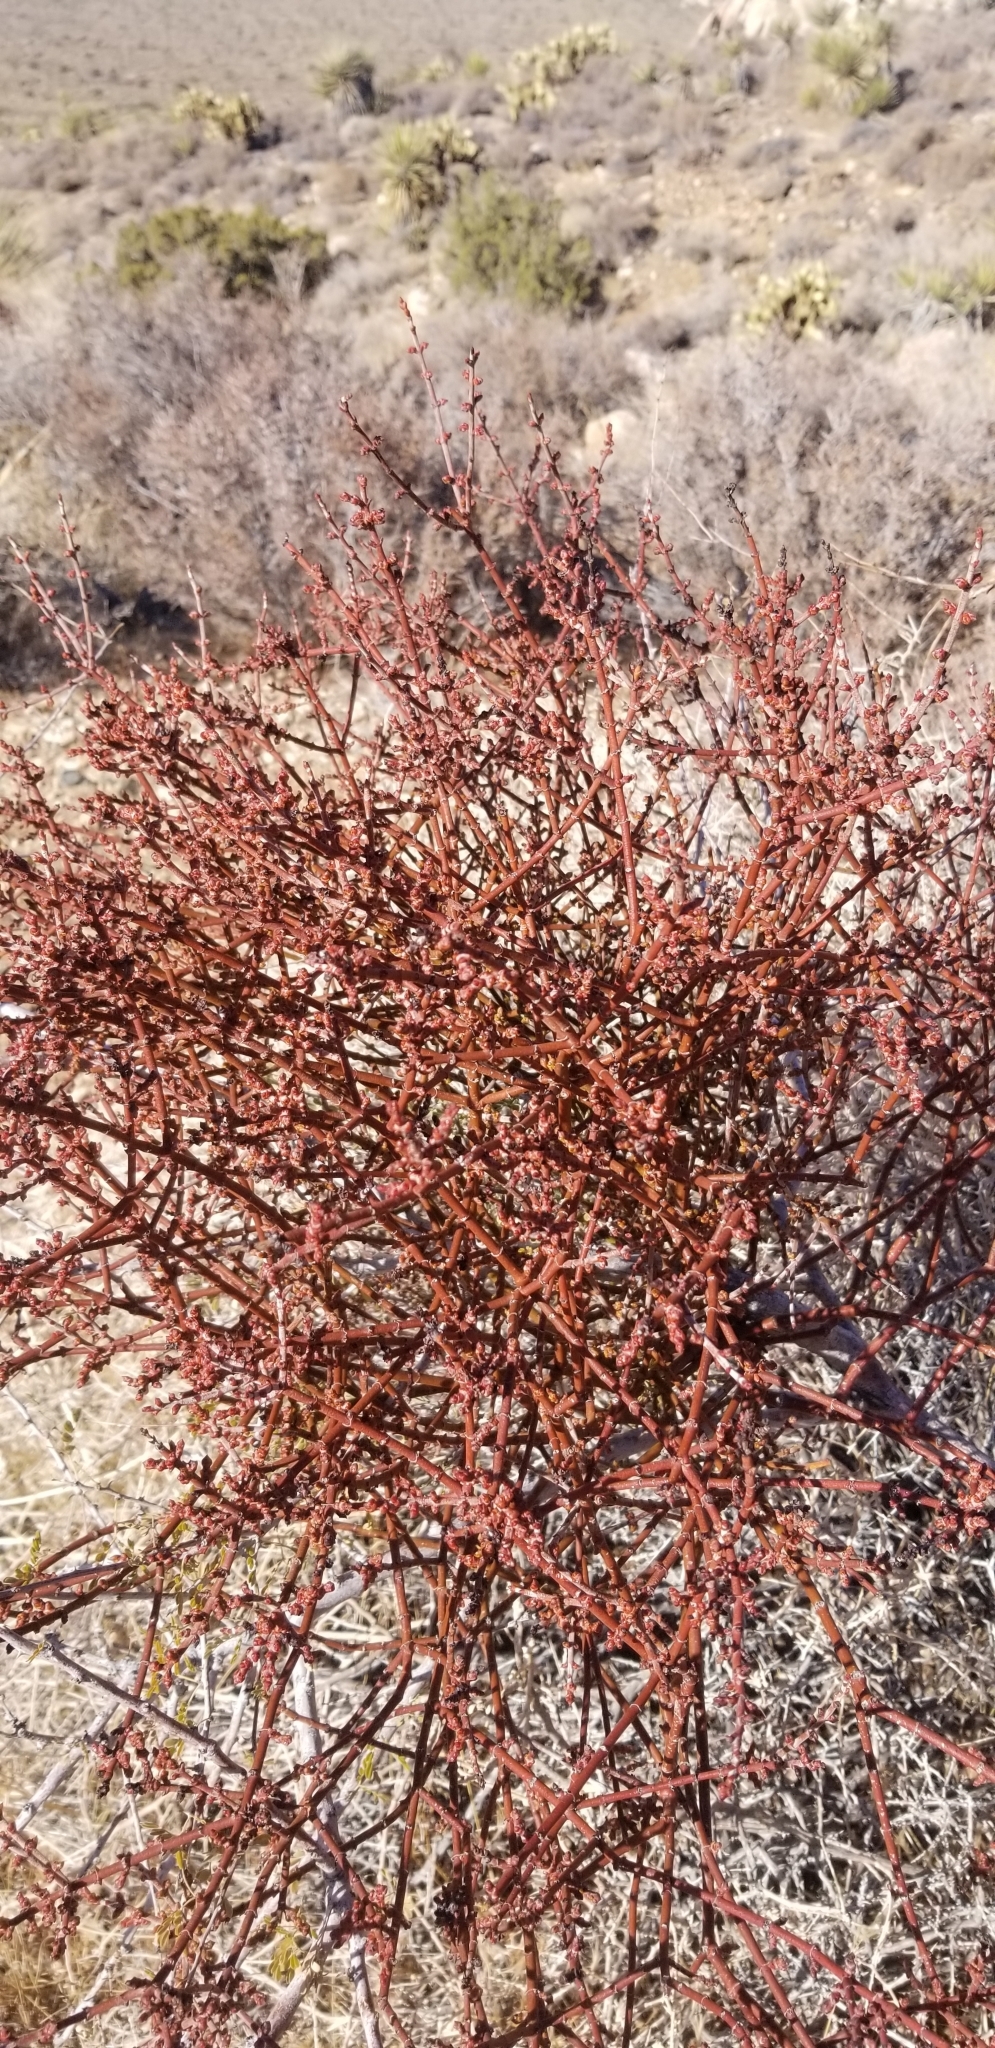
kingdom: Plantae
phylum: Tracheophyta
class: Magnoliopsida
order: Santalales
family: Viscaceae
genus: Phoradendron
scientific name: Phoradendron californicum
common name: Acacia mistletoe
